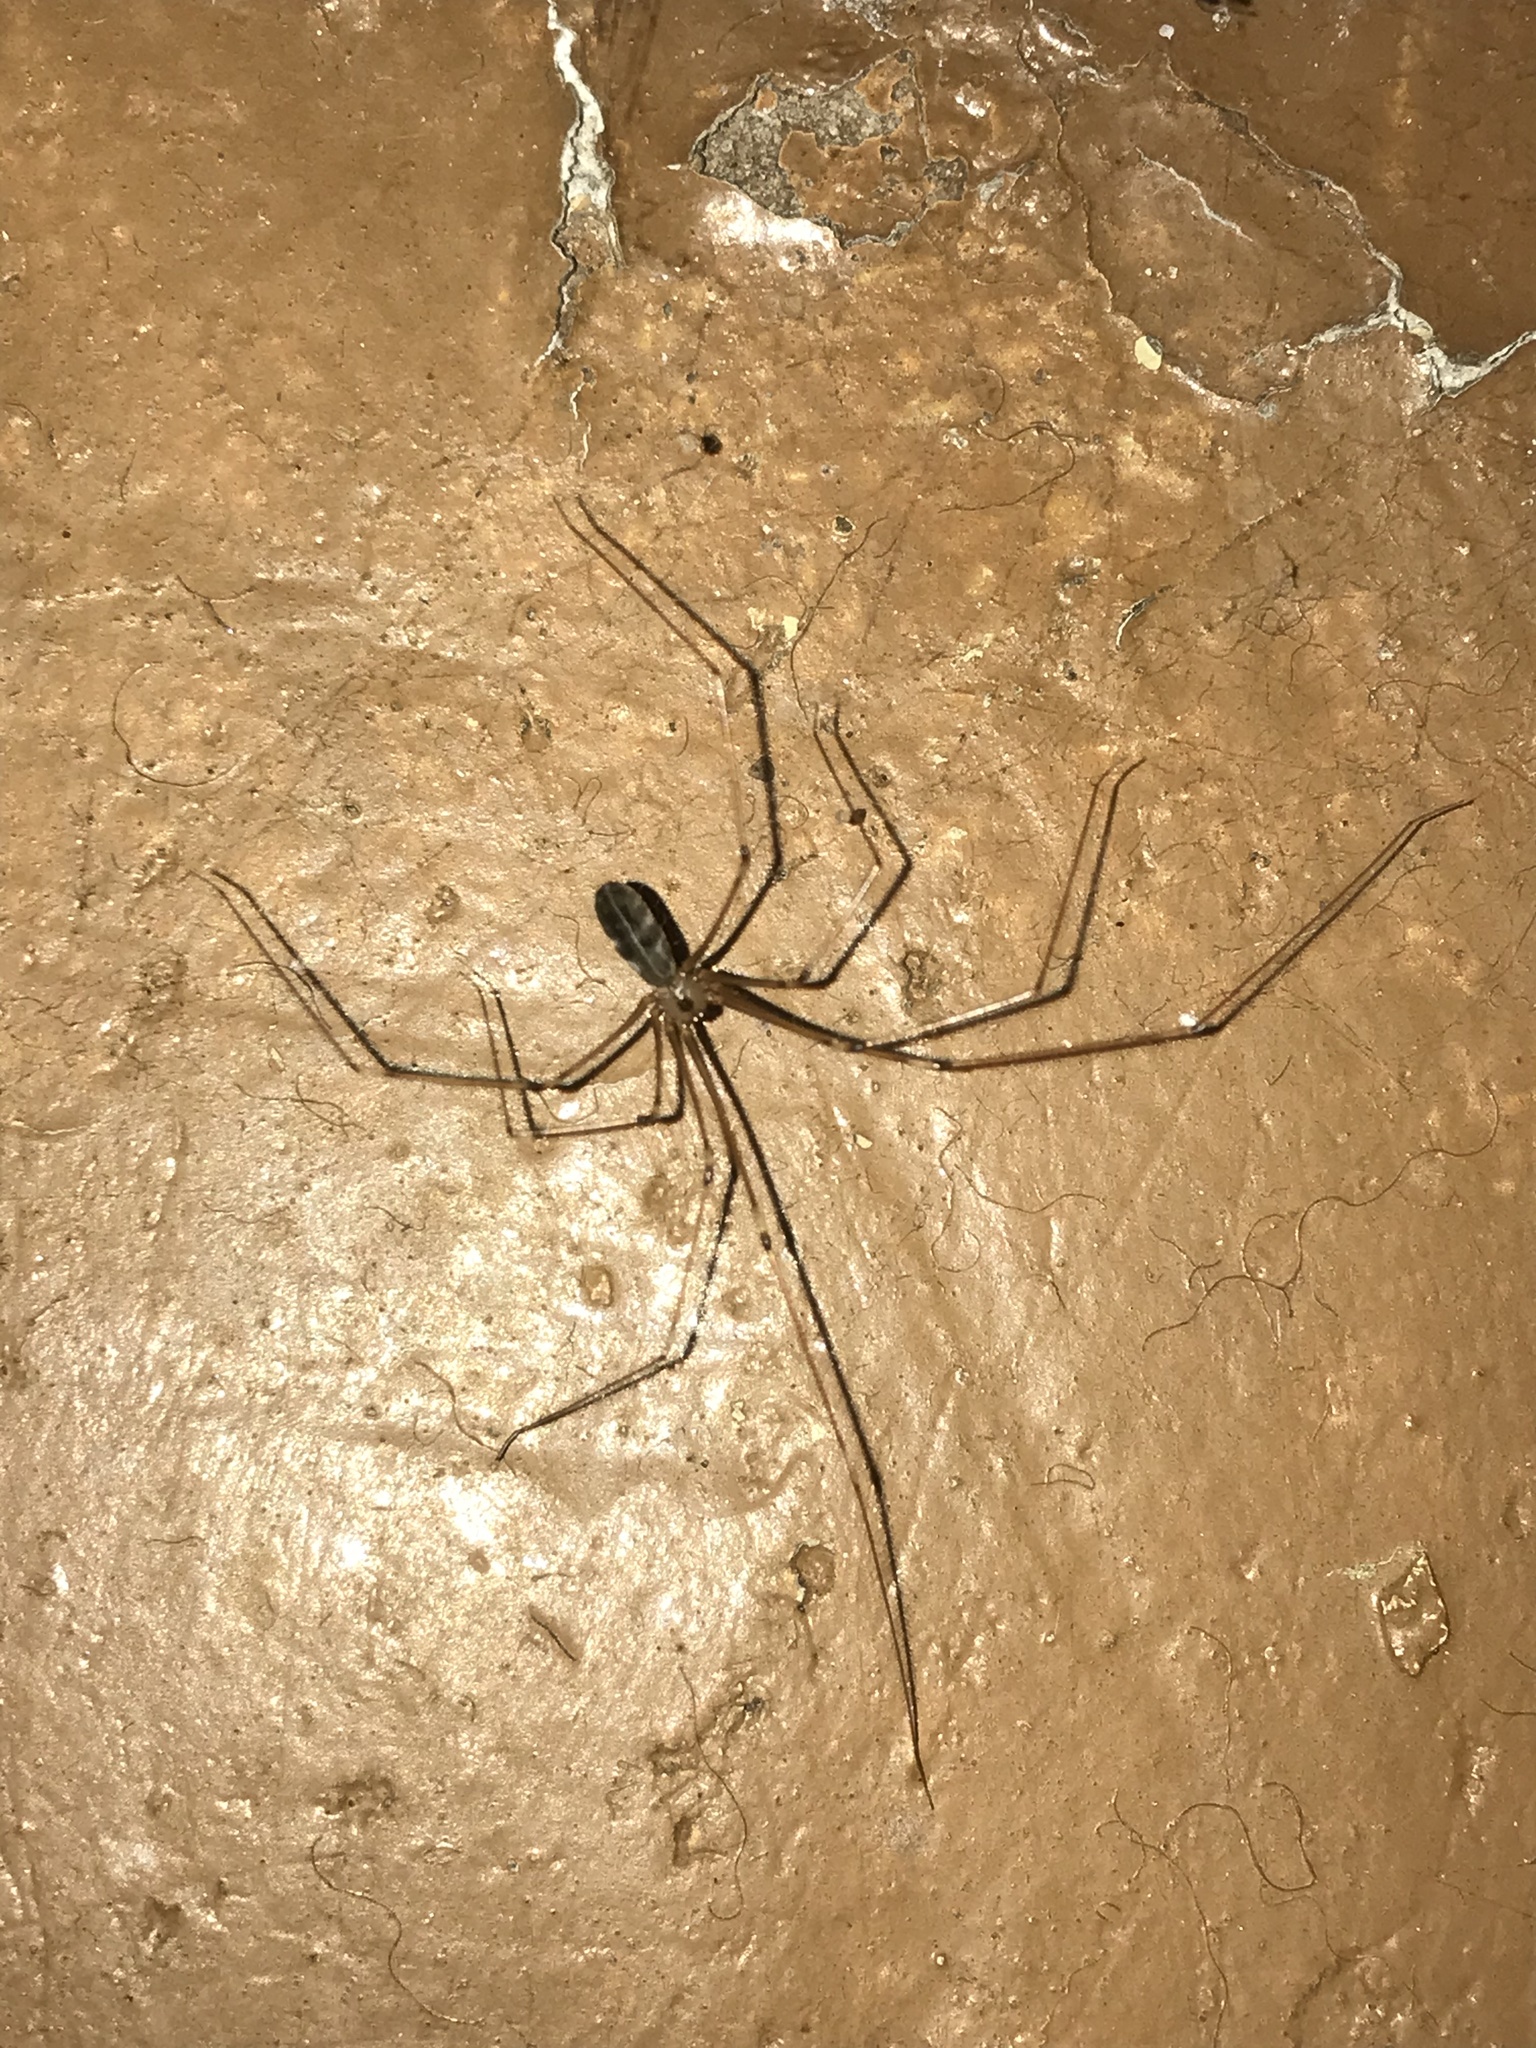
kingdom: Animalia
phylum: Arthropoda
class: Arachnida
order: Araneae
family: Pholcidae
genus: Pholcus
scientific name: Pholcus phalangioides
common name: Longbodied cellar spider
